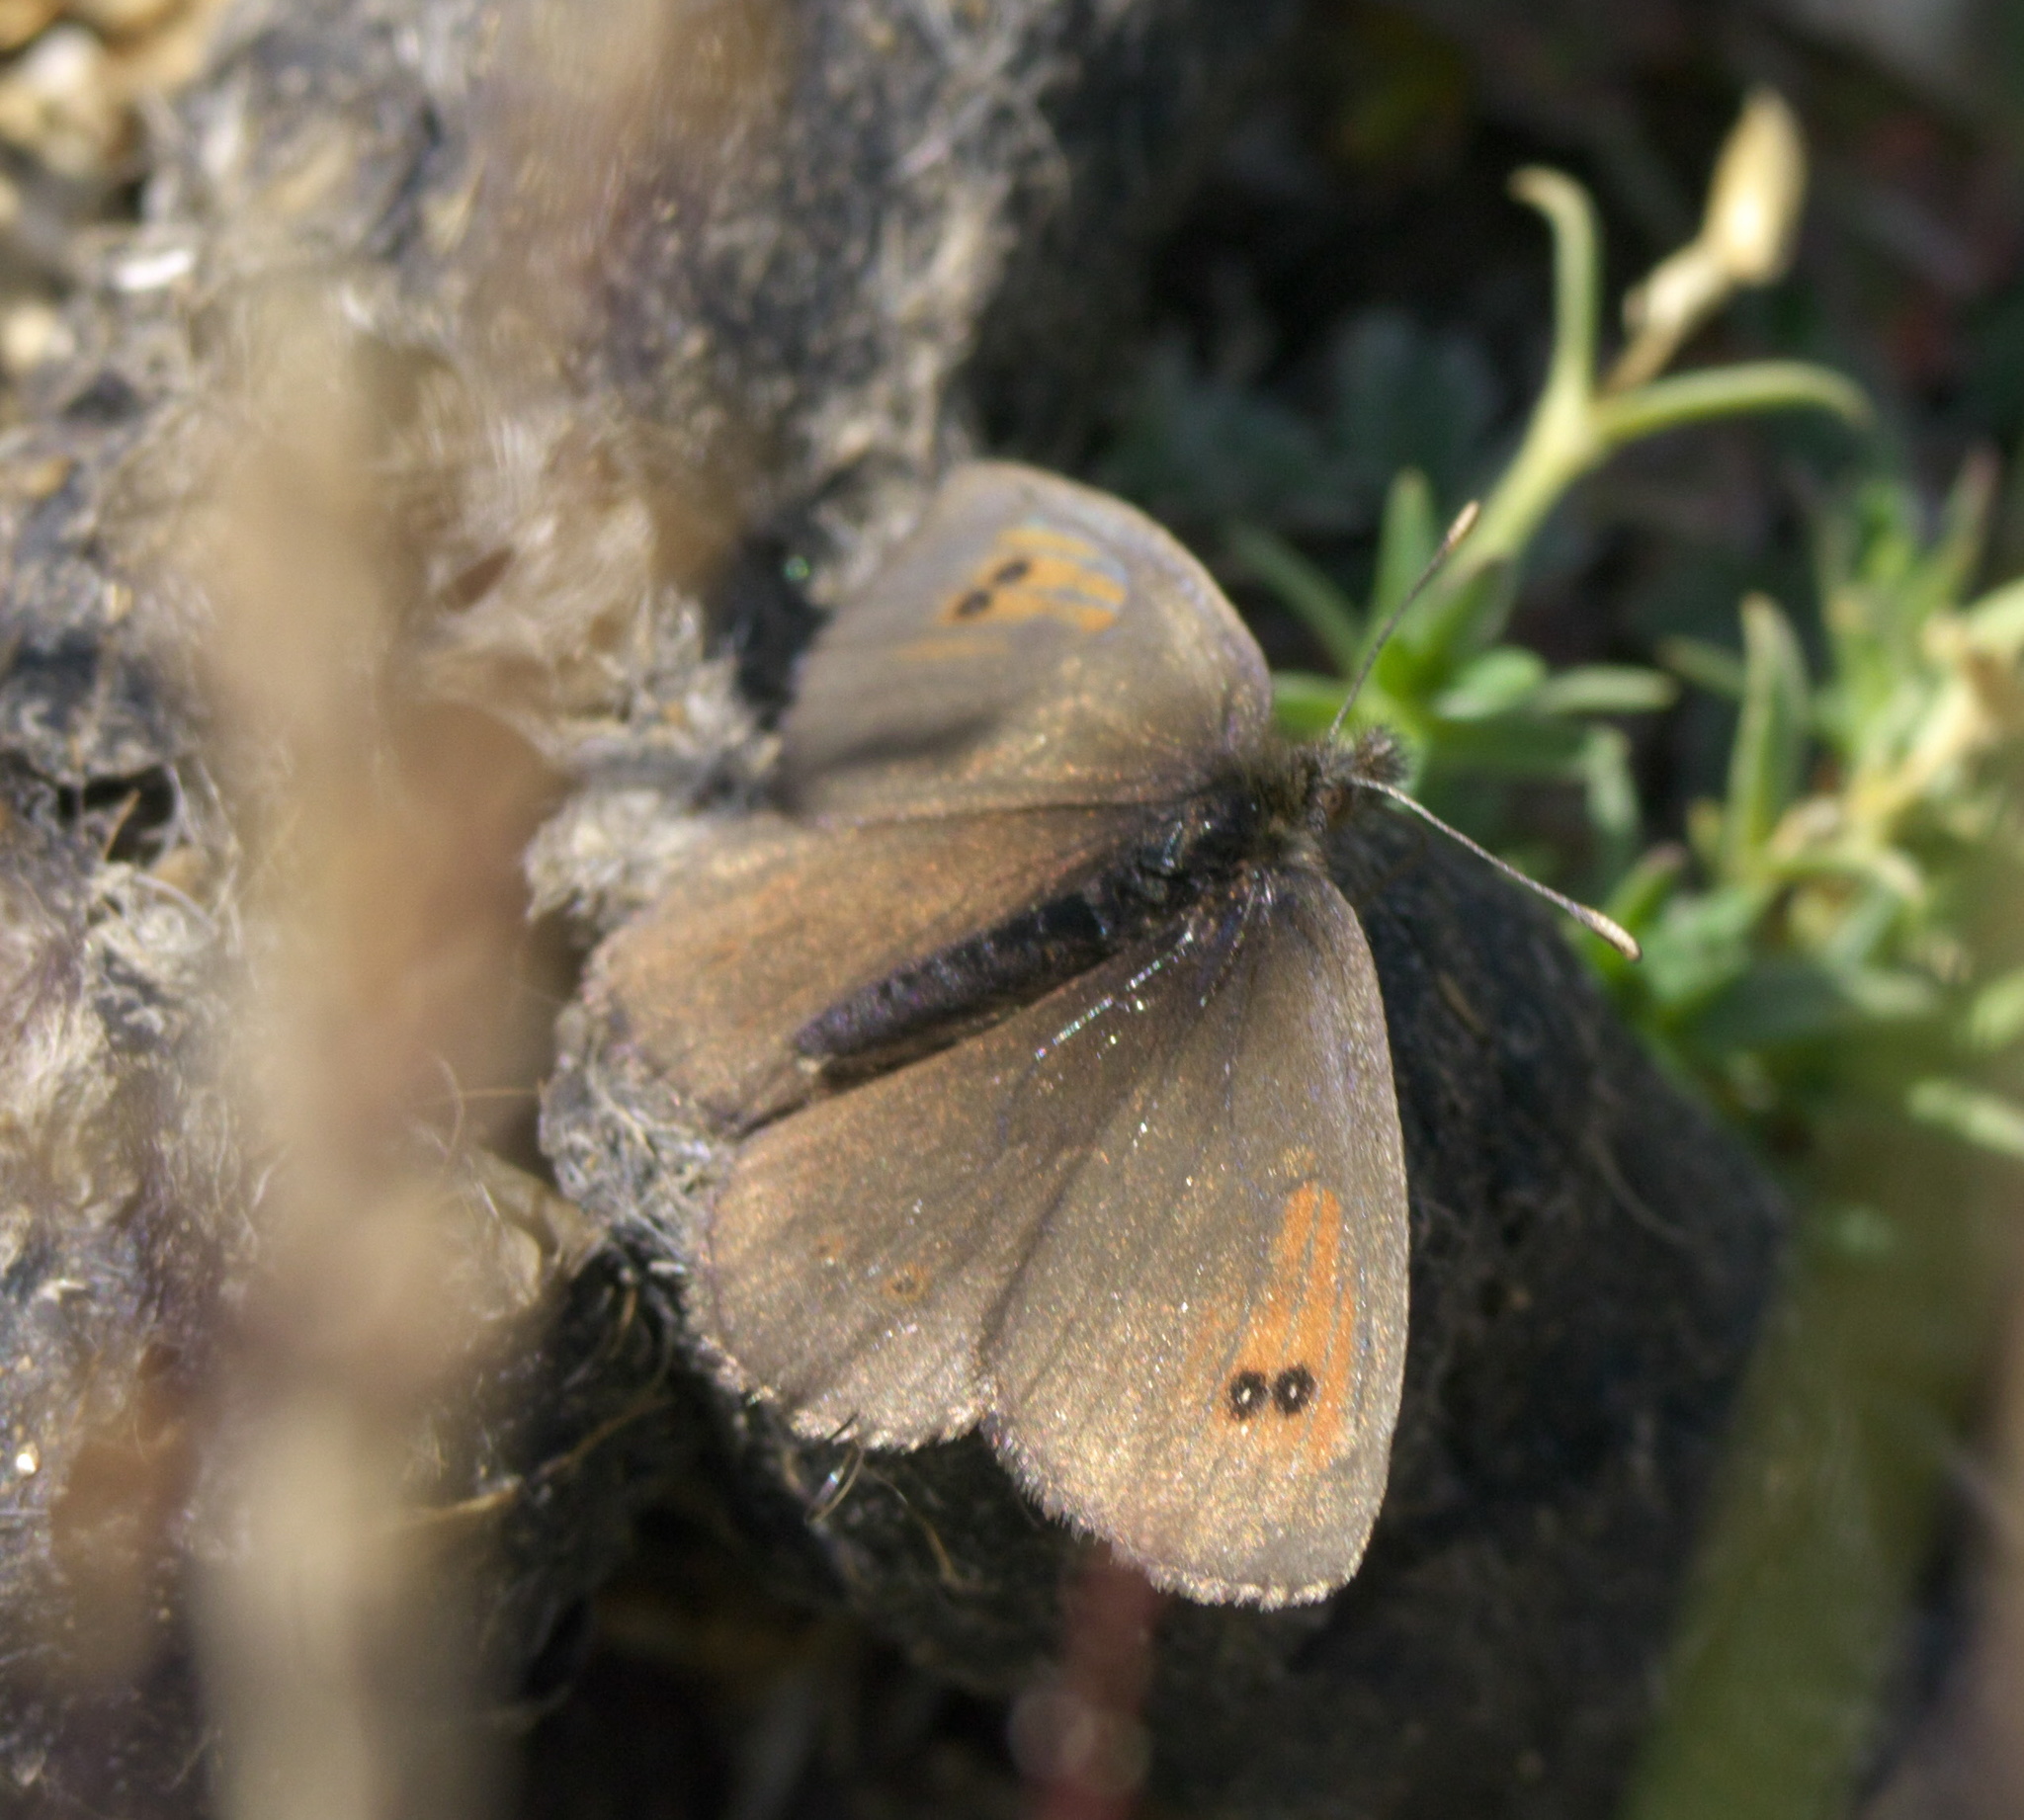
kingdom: Animalia
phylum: Arthropoda
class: Insecta
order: Lepidoptera
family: Nymphalidae
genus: Erebia
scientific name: Erebia tyndarus
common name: Swiss brassy ringlet
